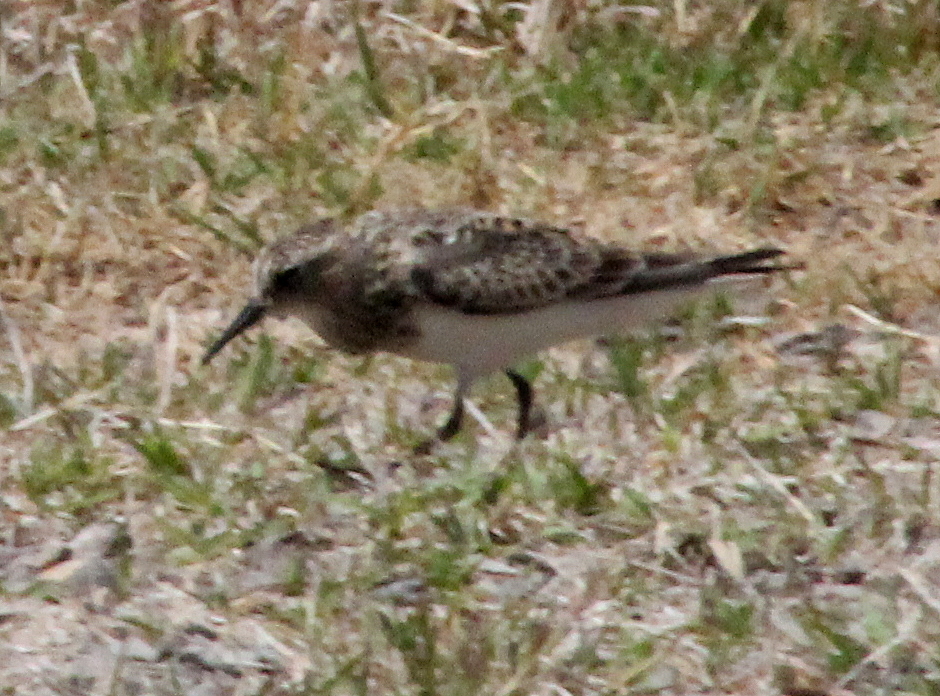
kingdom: Animalia
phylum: Chordata
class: Aves
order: Charadriiformes
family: Scolopacidae
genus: Calidris
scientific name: Calidris bairdii
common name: Baird's sandpiper
